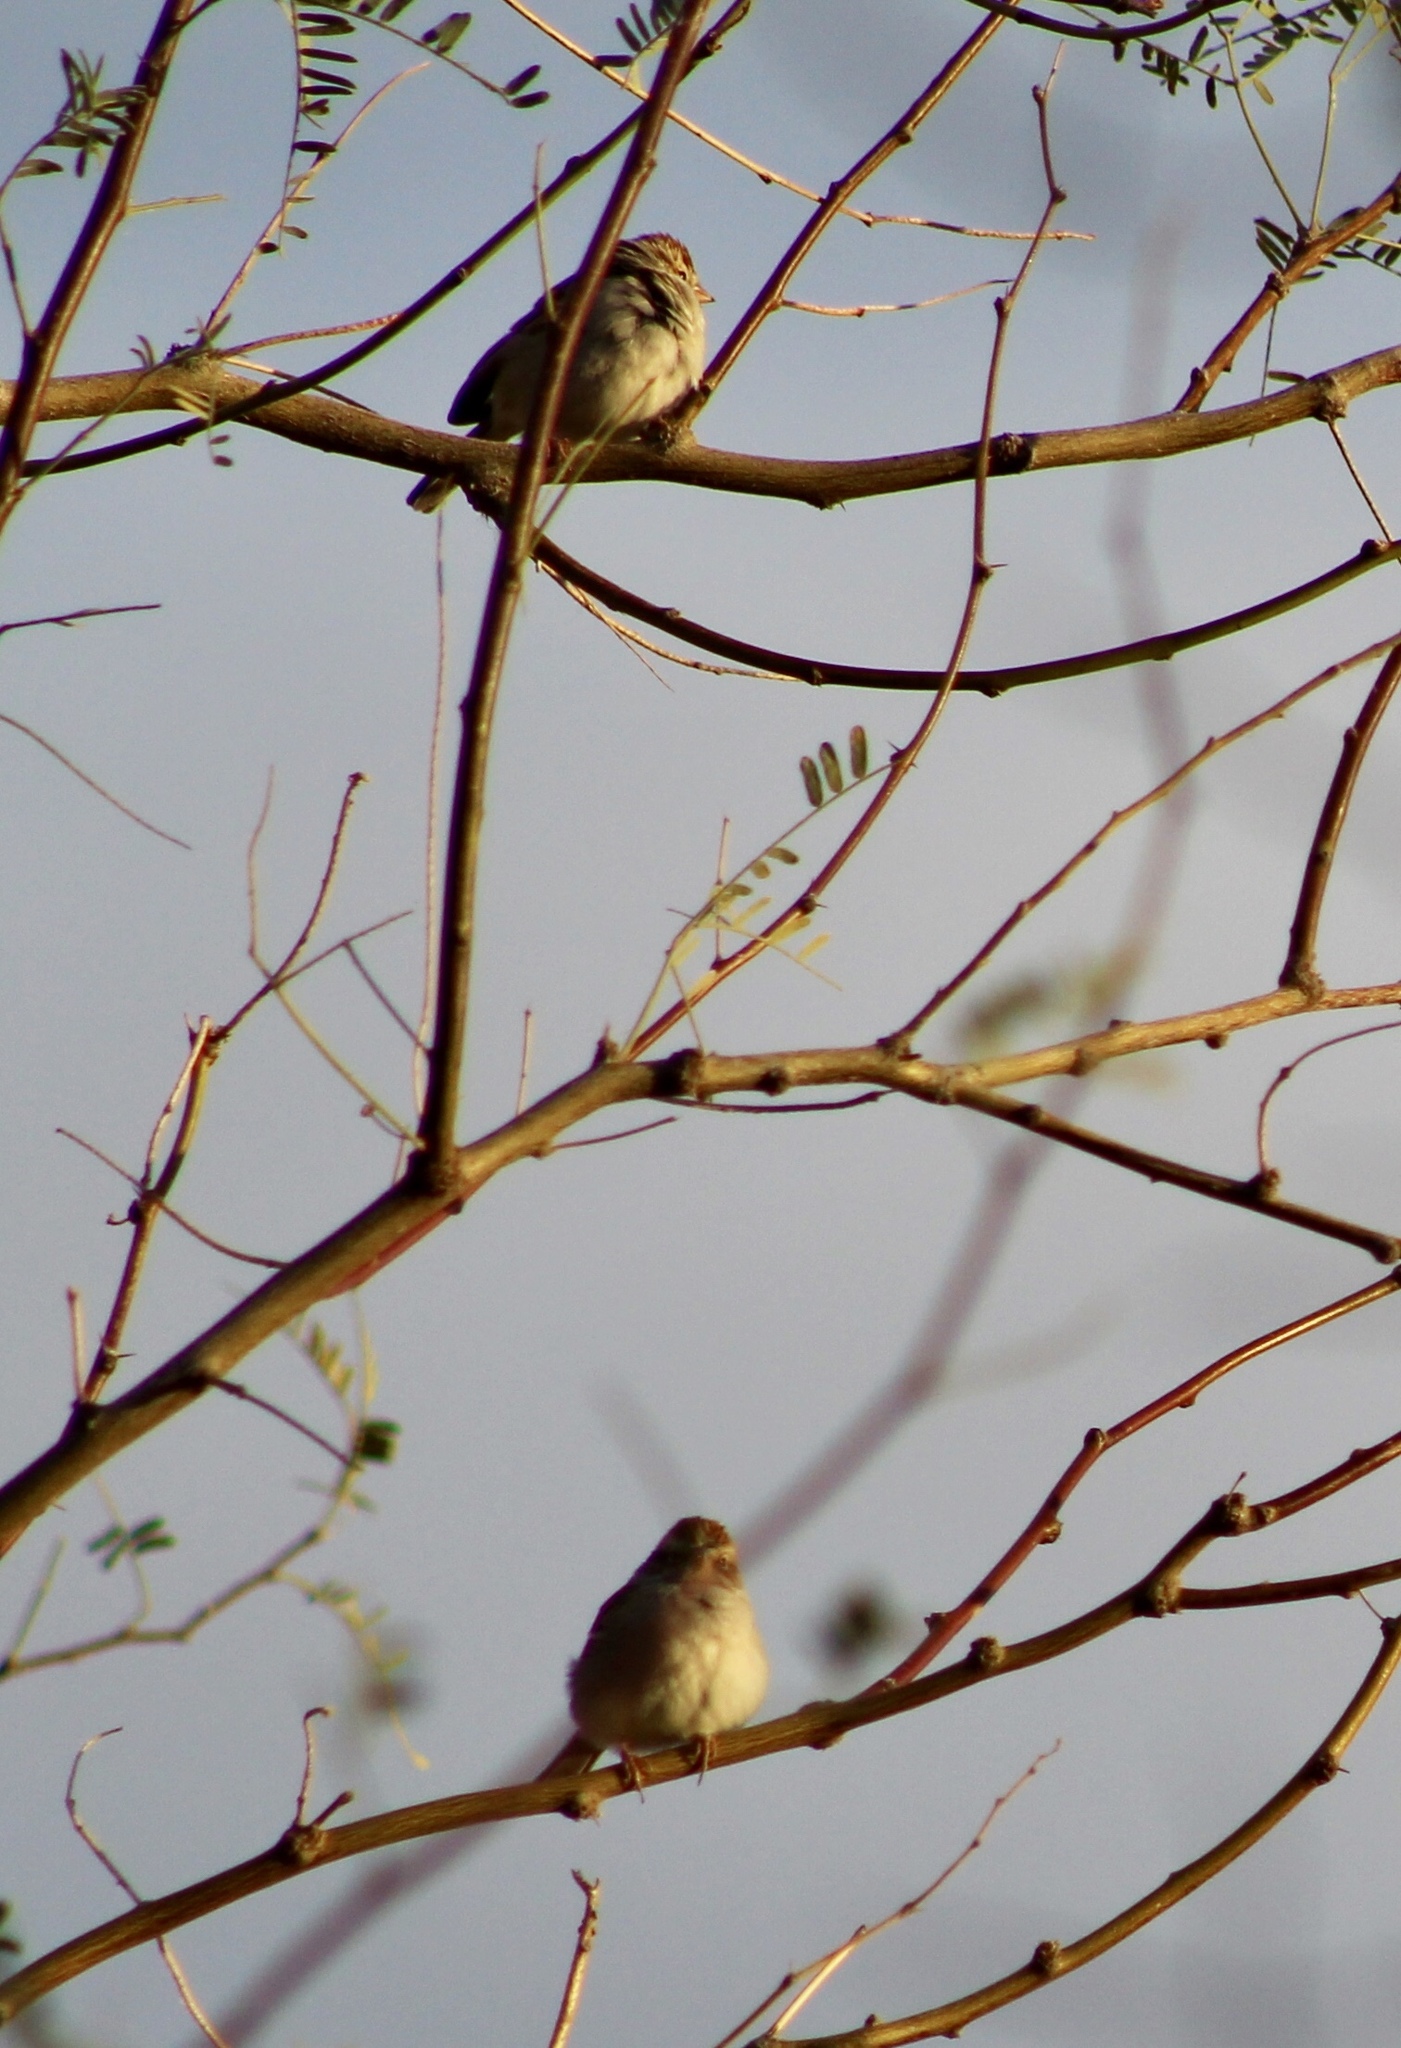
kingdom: Animalia
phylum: Chordata
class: Aves
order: Passeriformes
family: Passerellidae
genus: Spizella
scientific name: Spizella passerina
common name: Chipping sparrow
